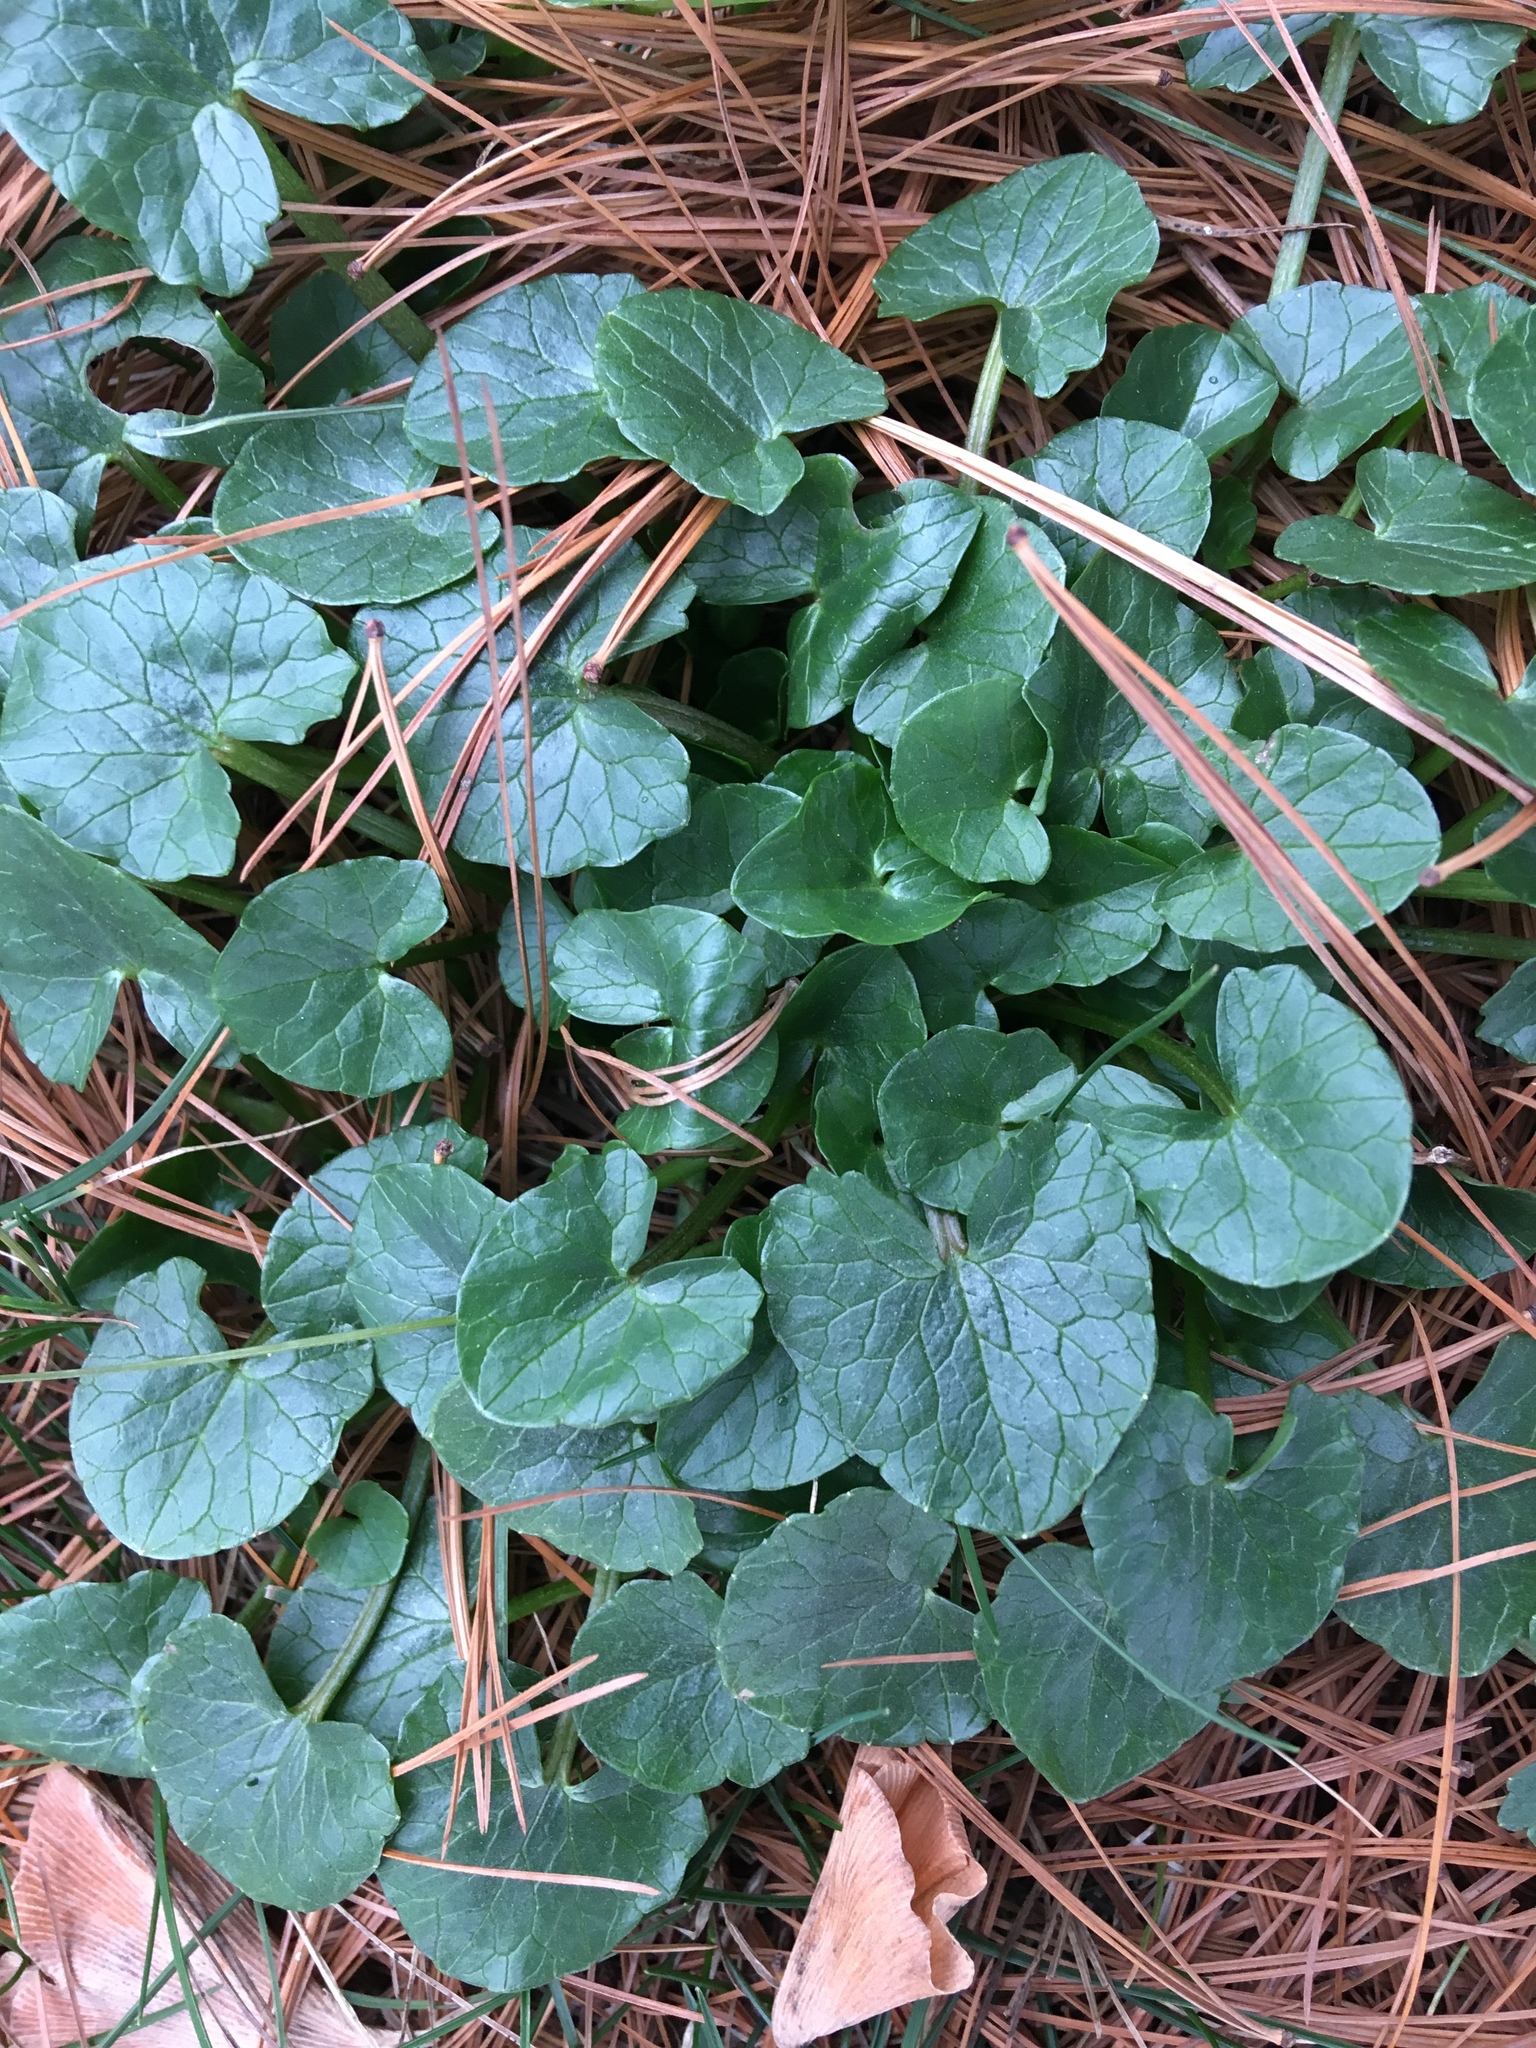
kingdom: Plantae
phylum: Tracheophyta
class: Magnoliopsida
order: Ranunculales
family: Ranunculaceae
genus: Ficaria
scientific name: Ficaria verna
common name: Lesser celandine
